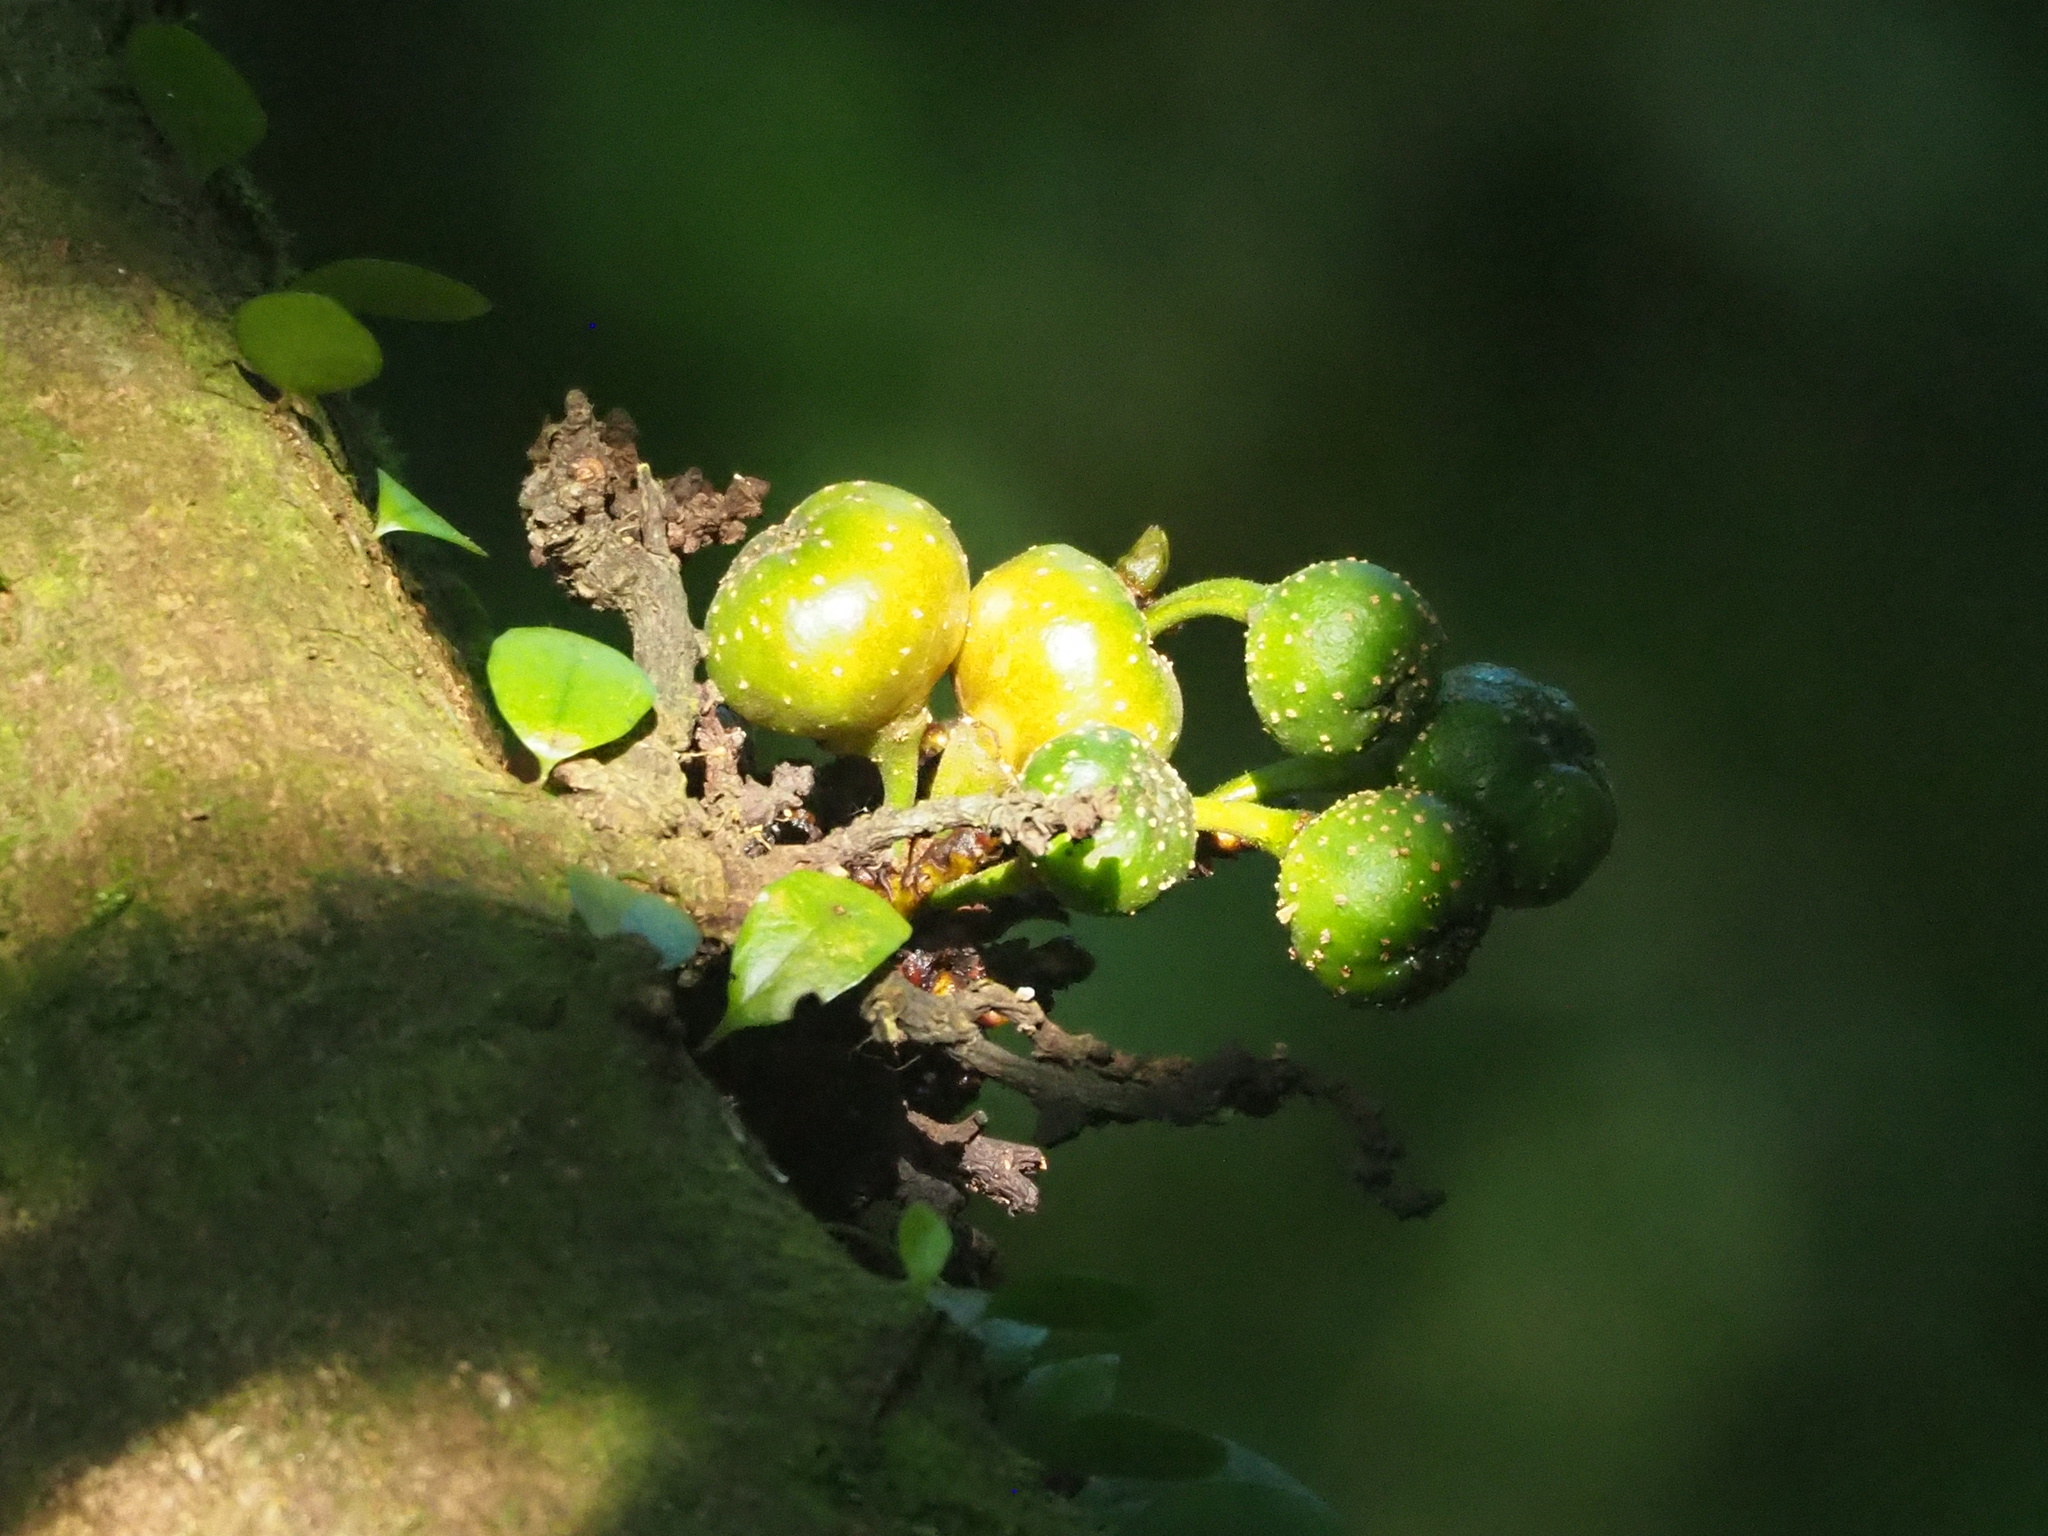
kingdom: Plantae
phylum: Tracheophyta
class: Magnoliopsida
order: Rosales
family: Moraceae
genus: Ficus
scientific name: Ficus benguetensis
